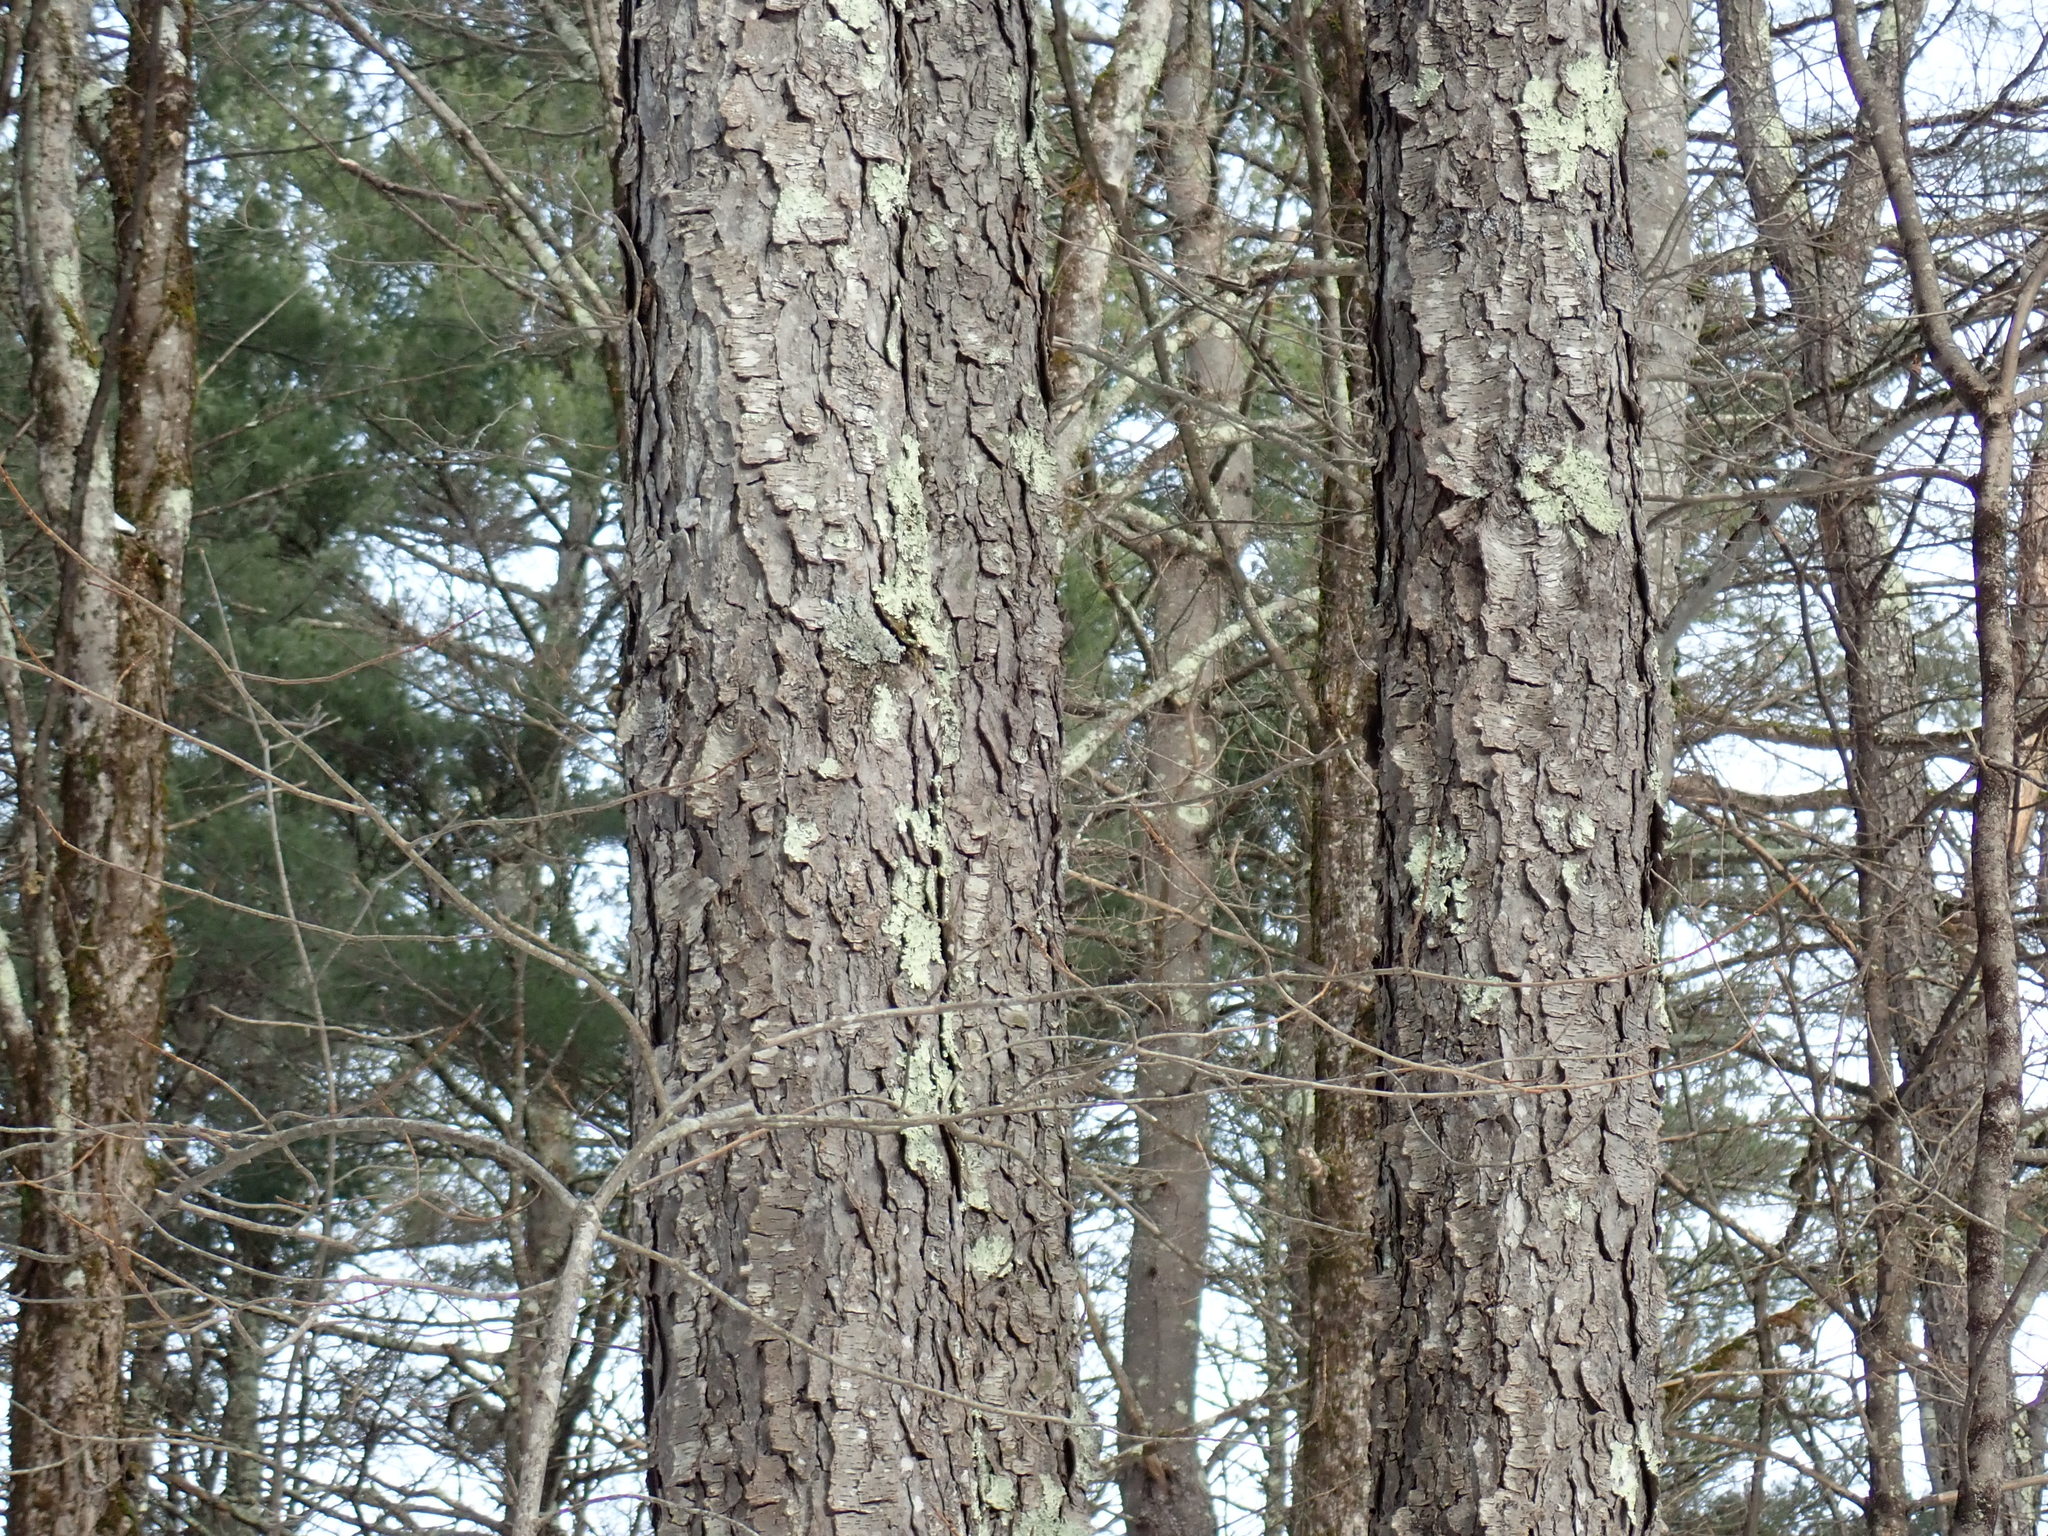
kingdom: Plantae
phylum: Tracheophyta
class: Magnoliopsida
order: Rosales
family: Rosaceae
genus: Prunus
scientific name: Prunus serotina
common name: Black cherry
